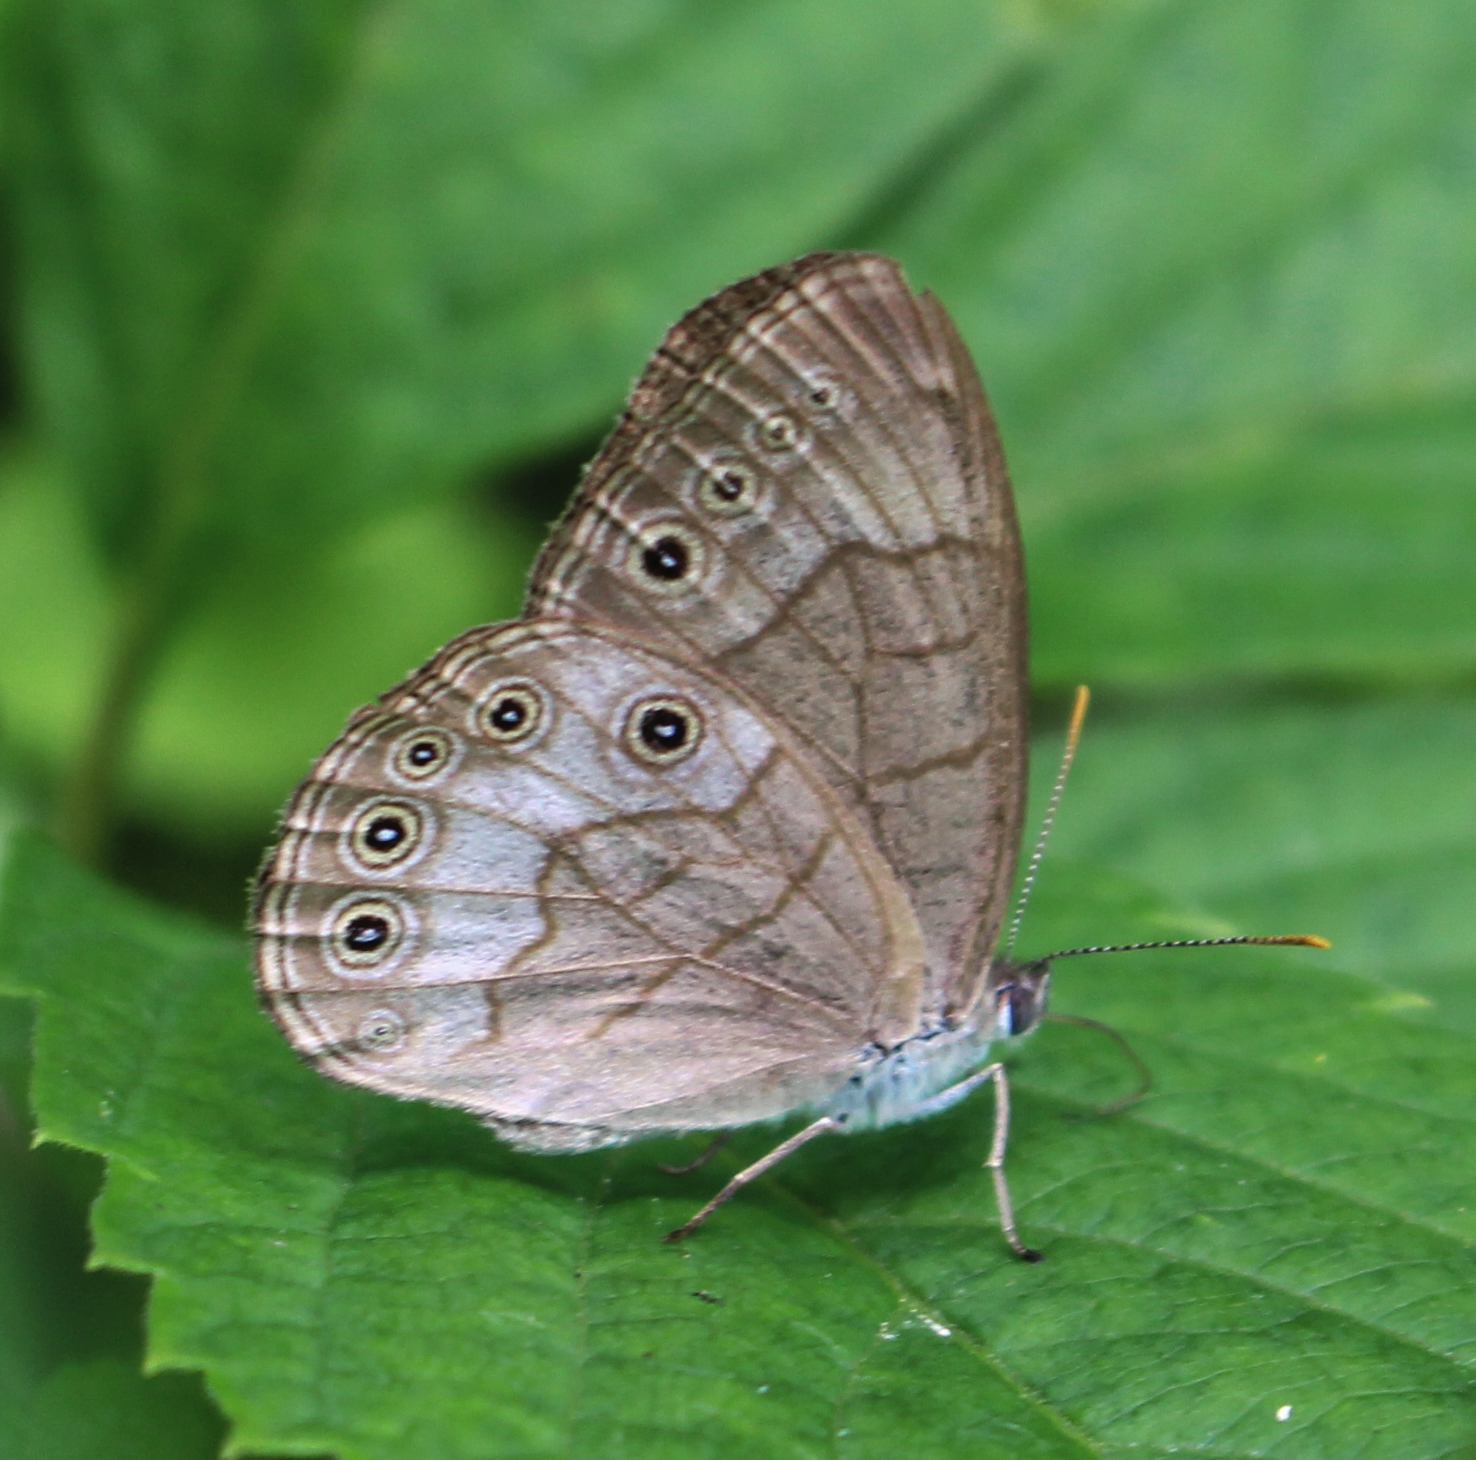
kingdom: Animalia
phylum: Arthropoda
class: Insecta
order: Lepidoptera
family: Nymphalidae
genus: Lethe
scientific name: Lethe eurydice
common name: Eyed brown
